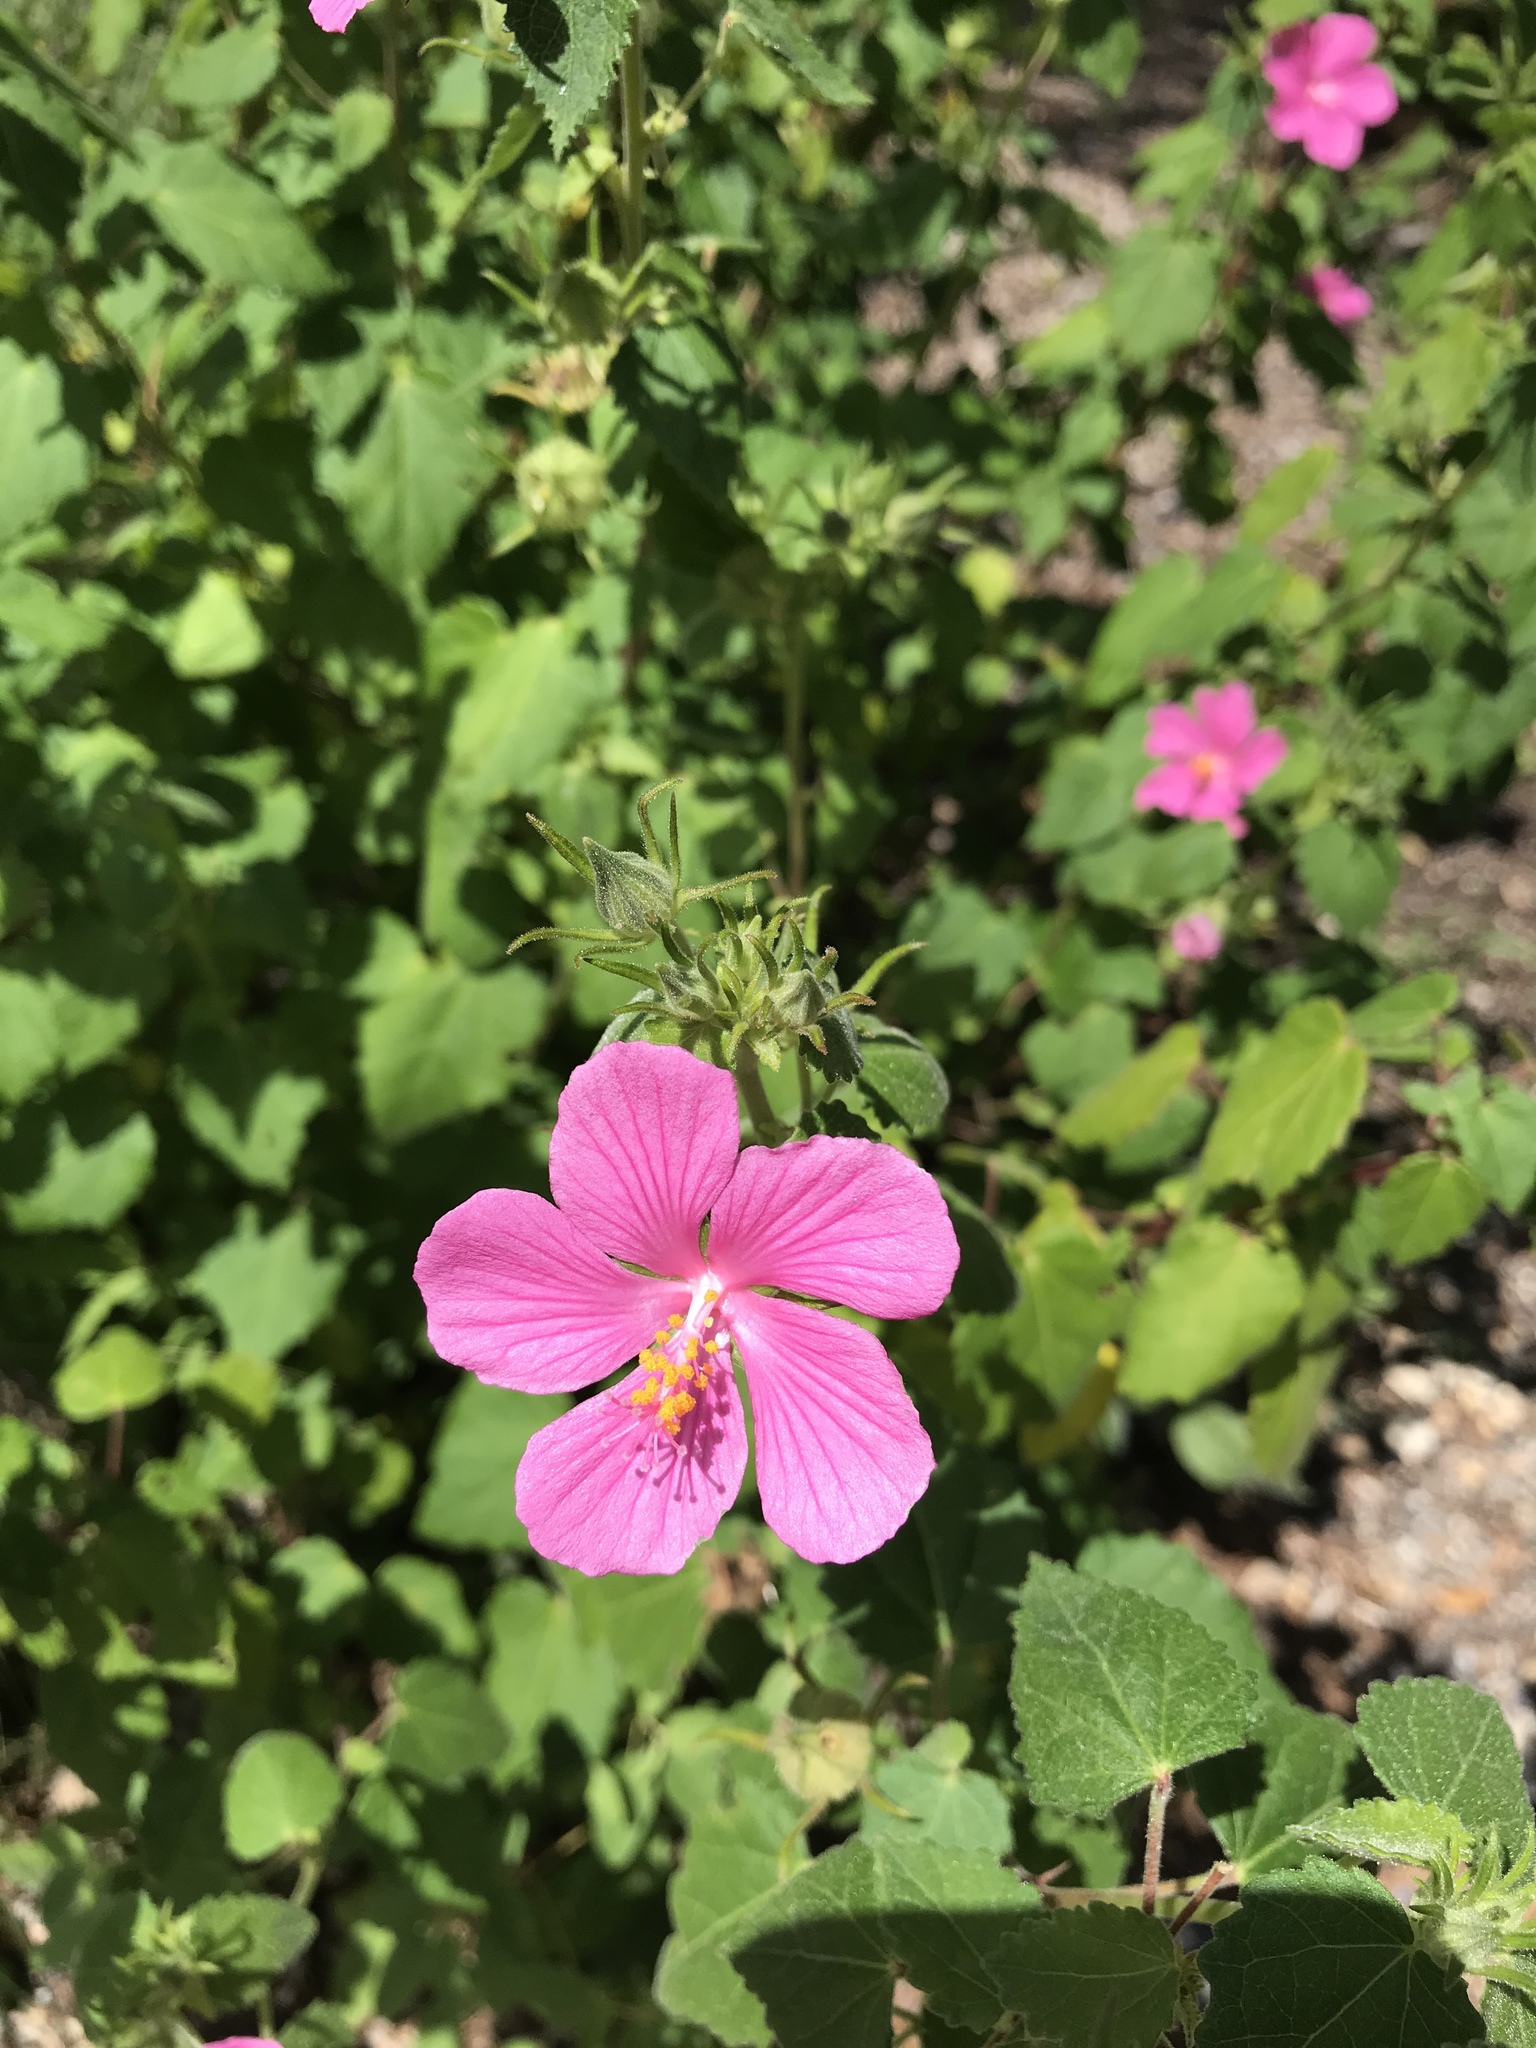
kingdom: Plantae
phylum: Tracheophyta
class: Magnoliopsida
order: Malvales
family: Malvaceae
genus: Pavonia
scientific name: Pavonia lasiopetala
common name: Texas swamp-mallow
